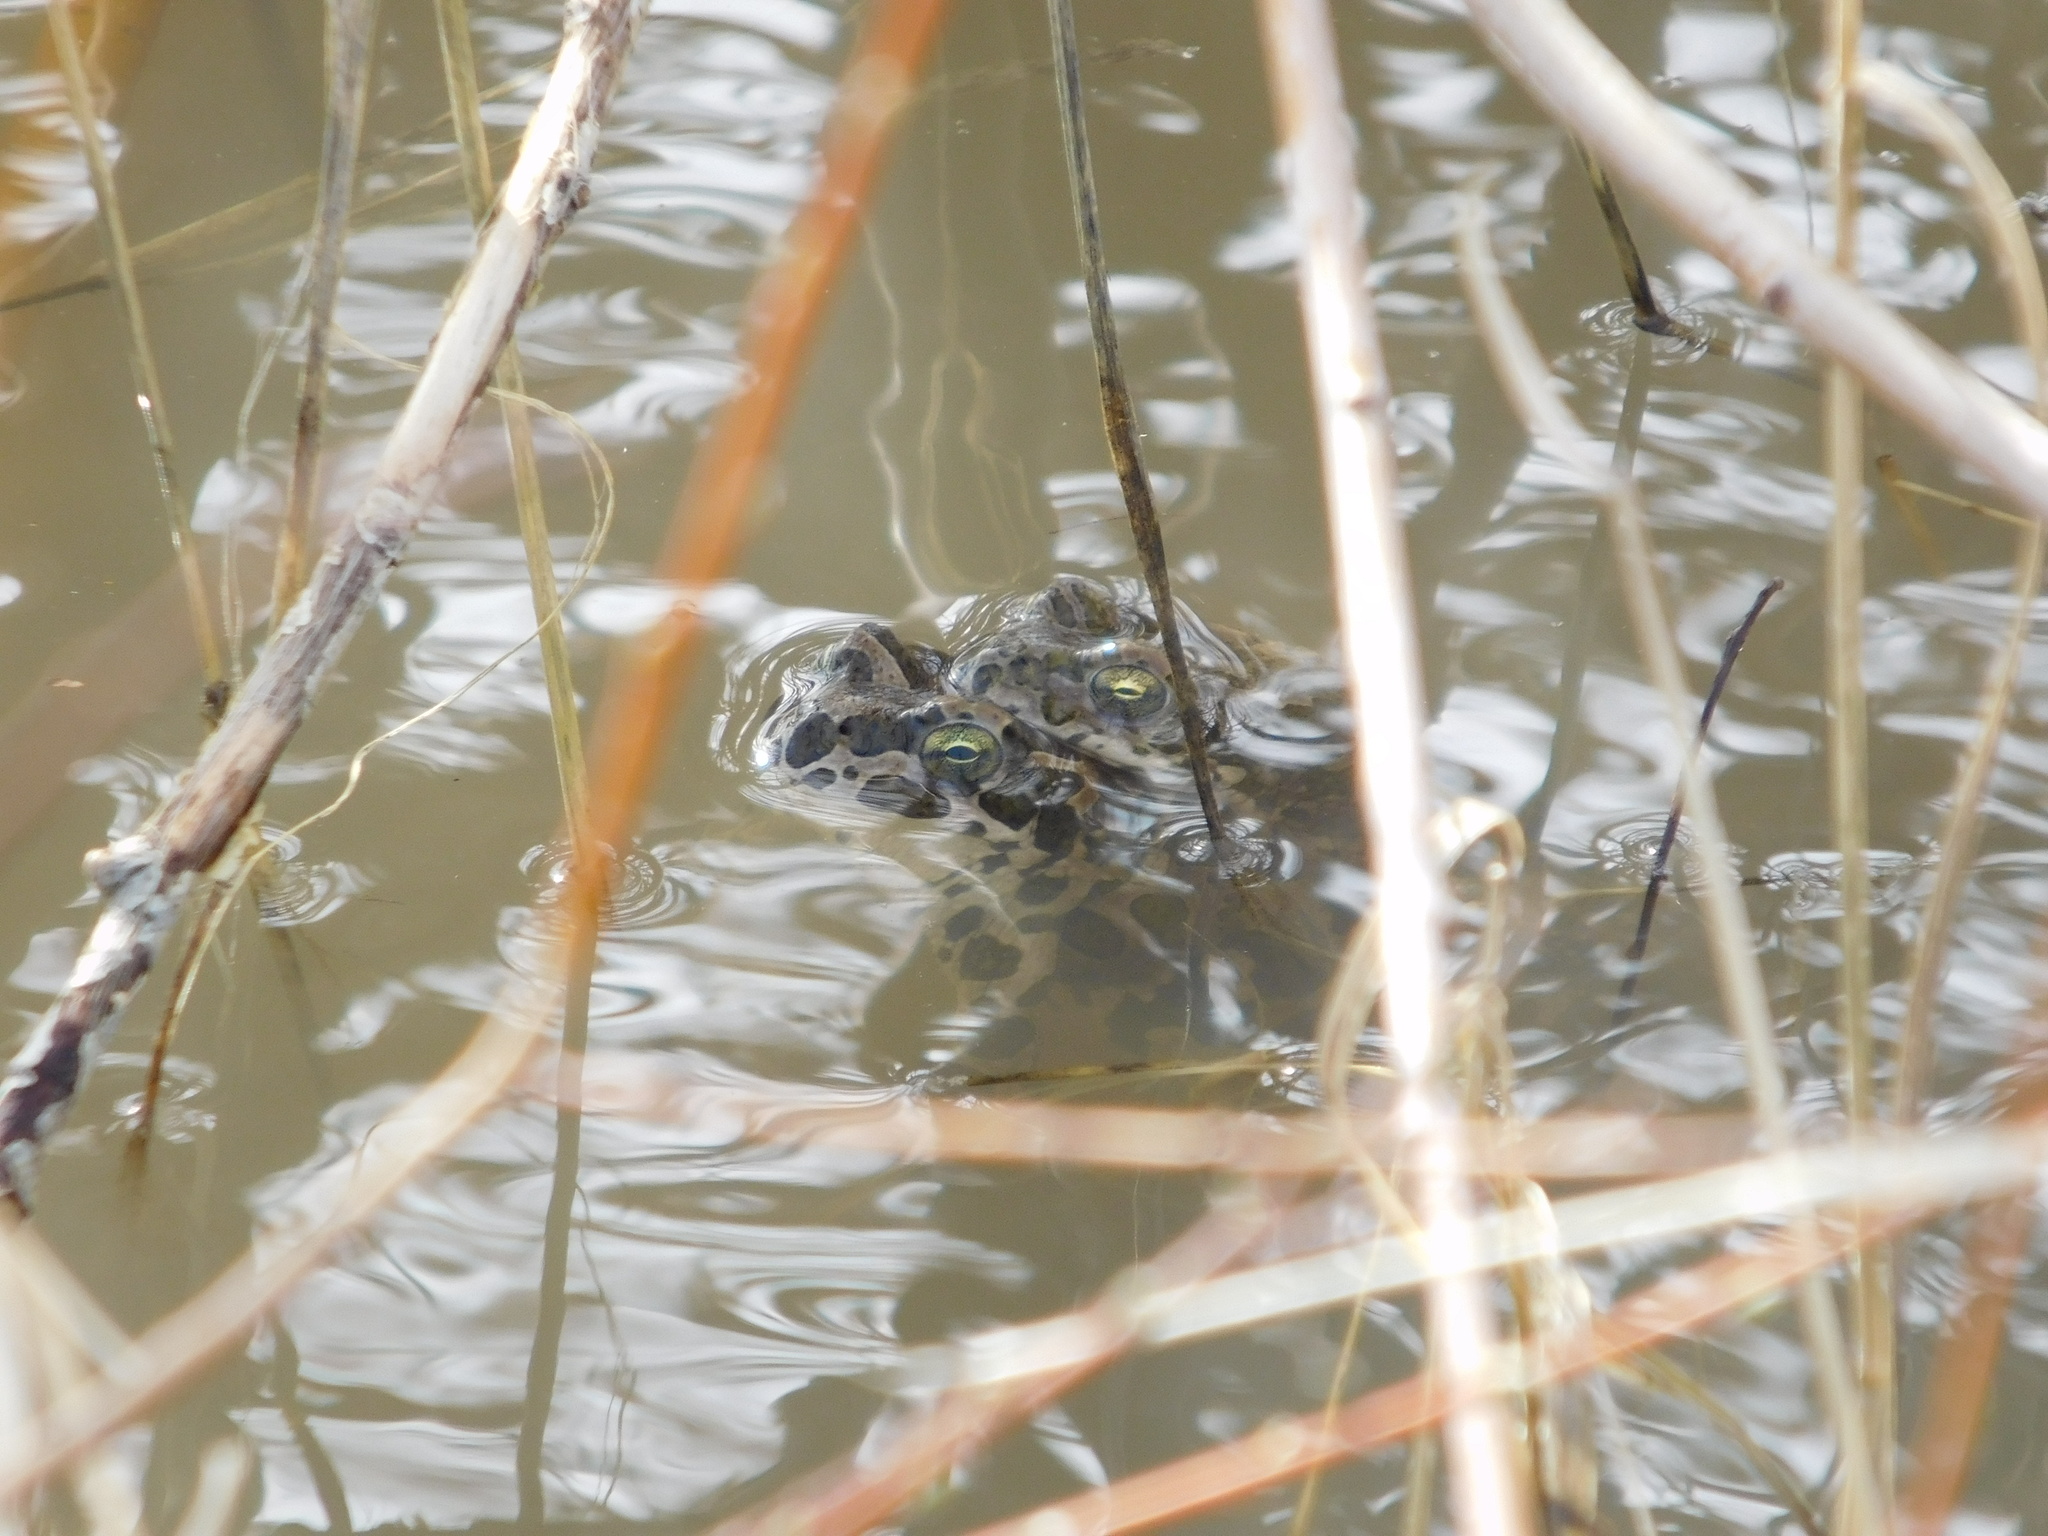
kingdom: Animalia
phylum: Chordata
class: Amphibia
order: Anura
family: Bufonidae
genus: Bufotes
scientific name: Bufotes viridis
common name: European green toad
